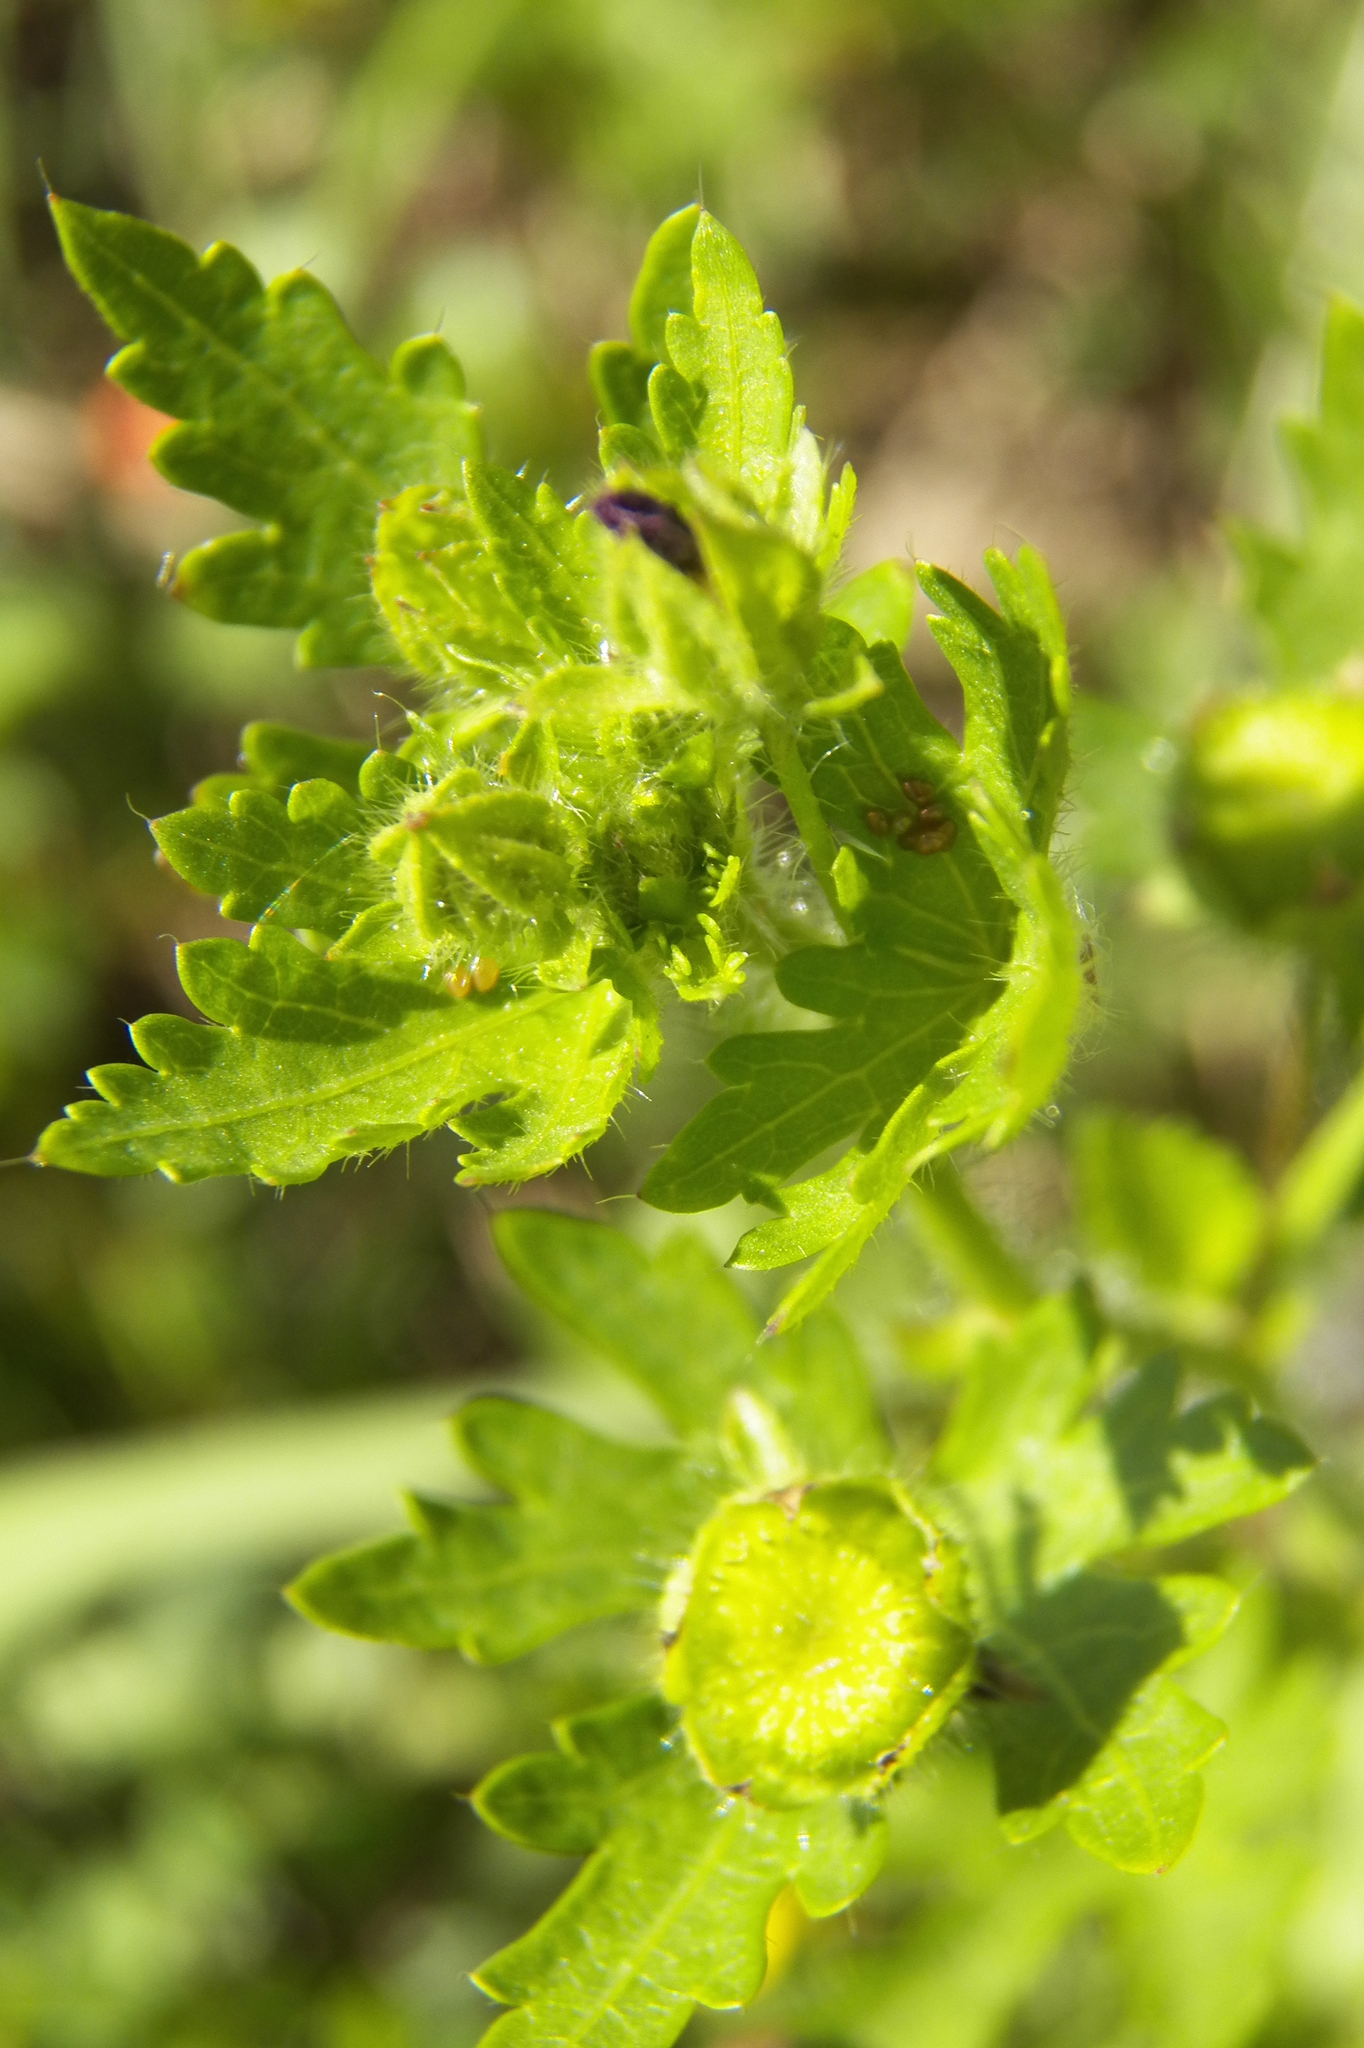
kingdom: Plantae
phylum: Tracheophyta
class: Magnoliopsida
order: Malvales
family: Malvaceae
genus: Modiola
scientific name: Modiola caroliniana
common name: Carolina bristlemallow
